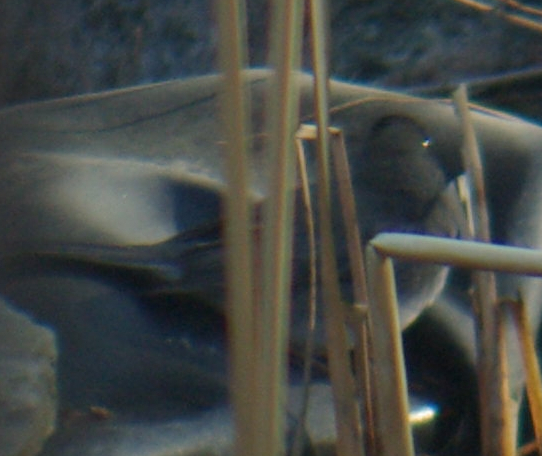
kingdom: Animalia
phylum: Chordata
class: Aves
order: Passeriformes
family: Passerellidae
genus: Junco
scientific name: Junco hyemalis
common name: Dark-eyed junco
